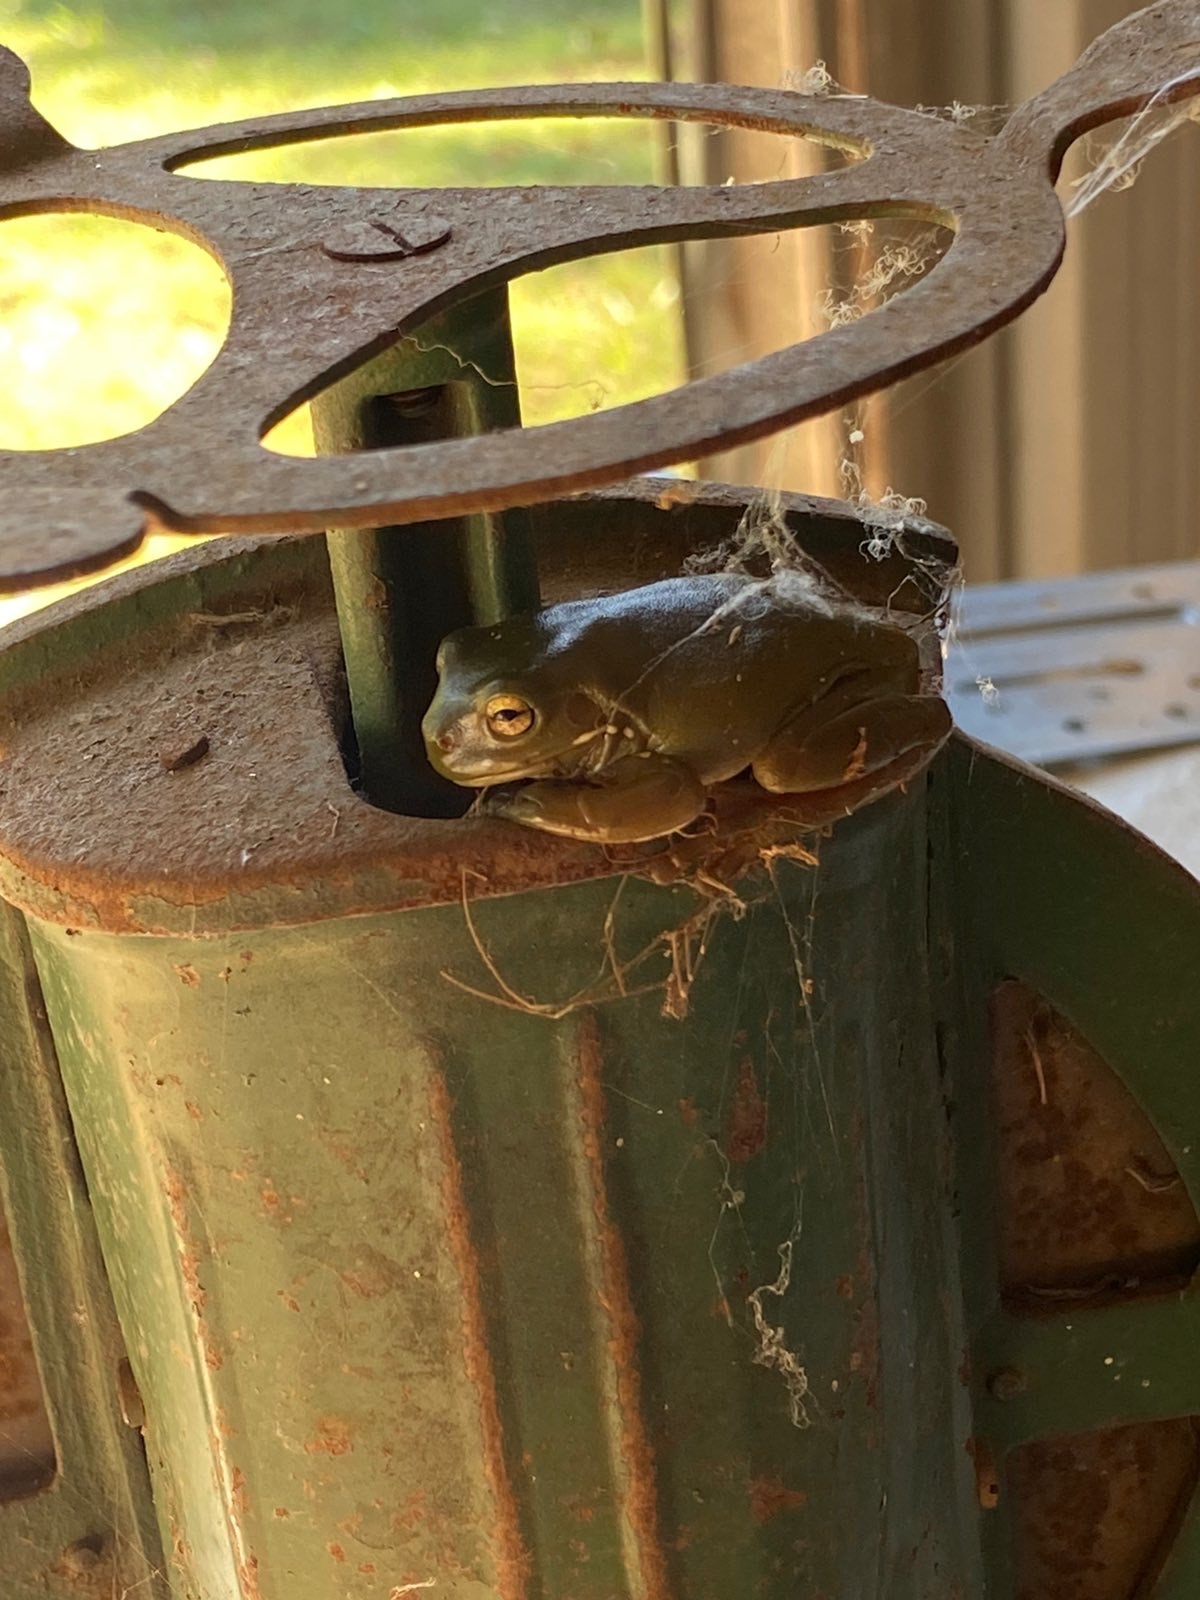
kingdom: Animalia
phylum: Chordata
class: Amphibia
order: Anura
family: Pelodryadidae
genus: Ranoidea
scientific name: Ranoidea caerulea
